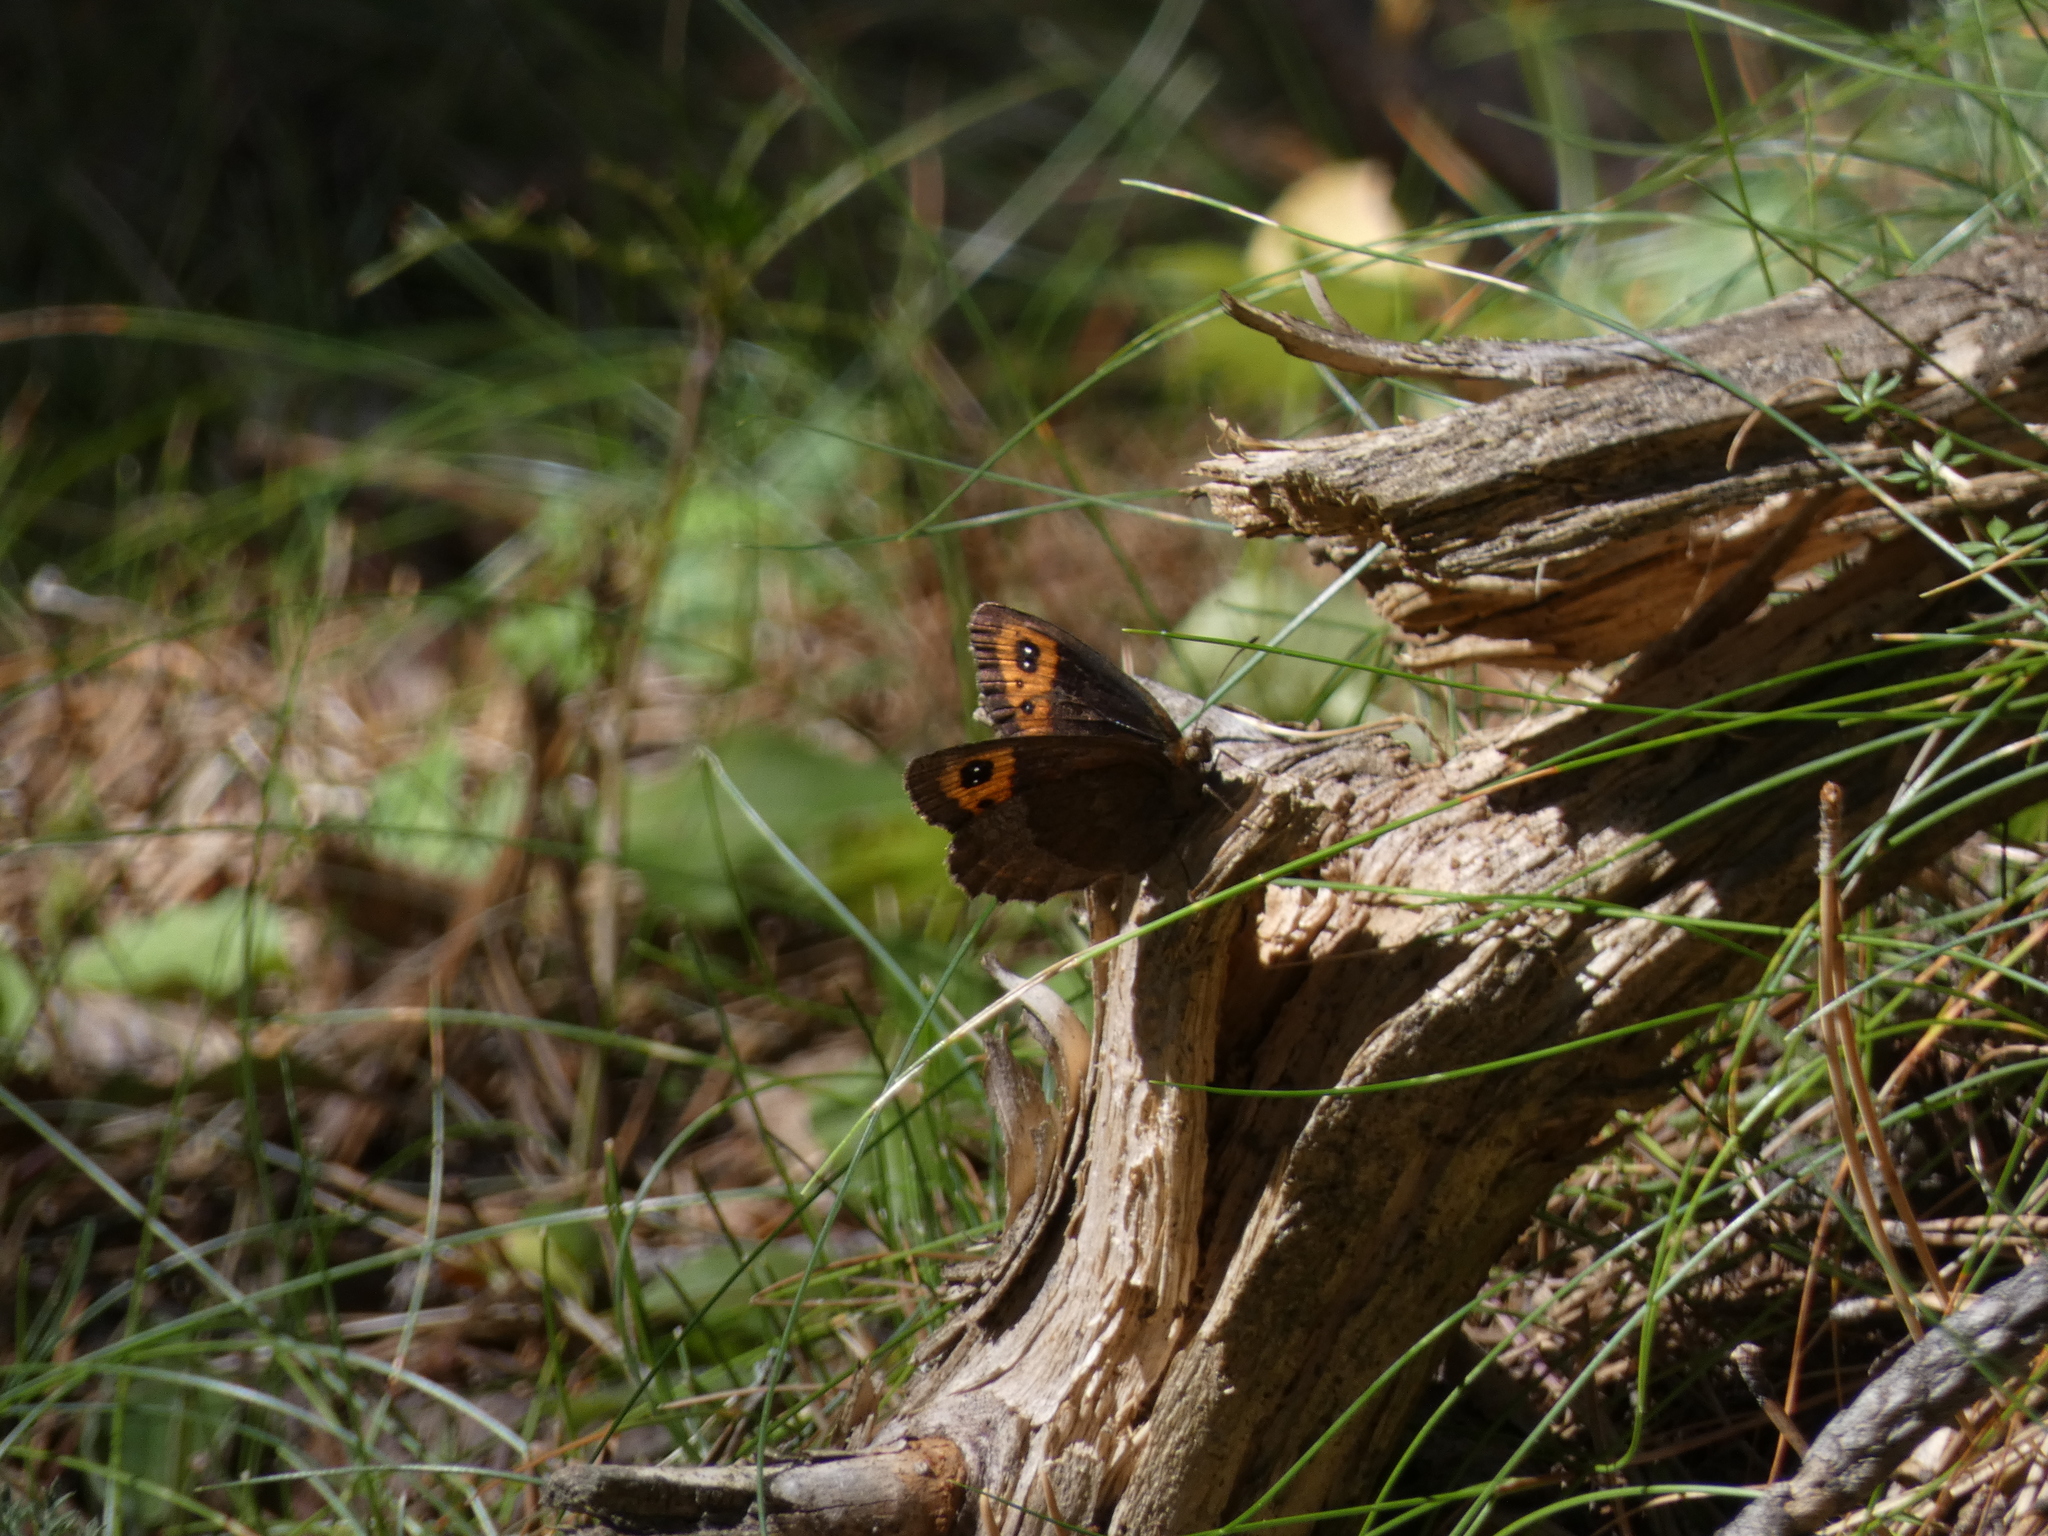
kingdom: Animalia
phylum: Arthropoda
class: Insecta
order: Lepidoptera
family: Nymphalidae
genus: Erebia
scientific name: Erebia neoridas
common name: Autumn ringlet
